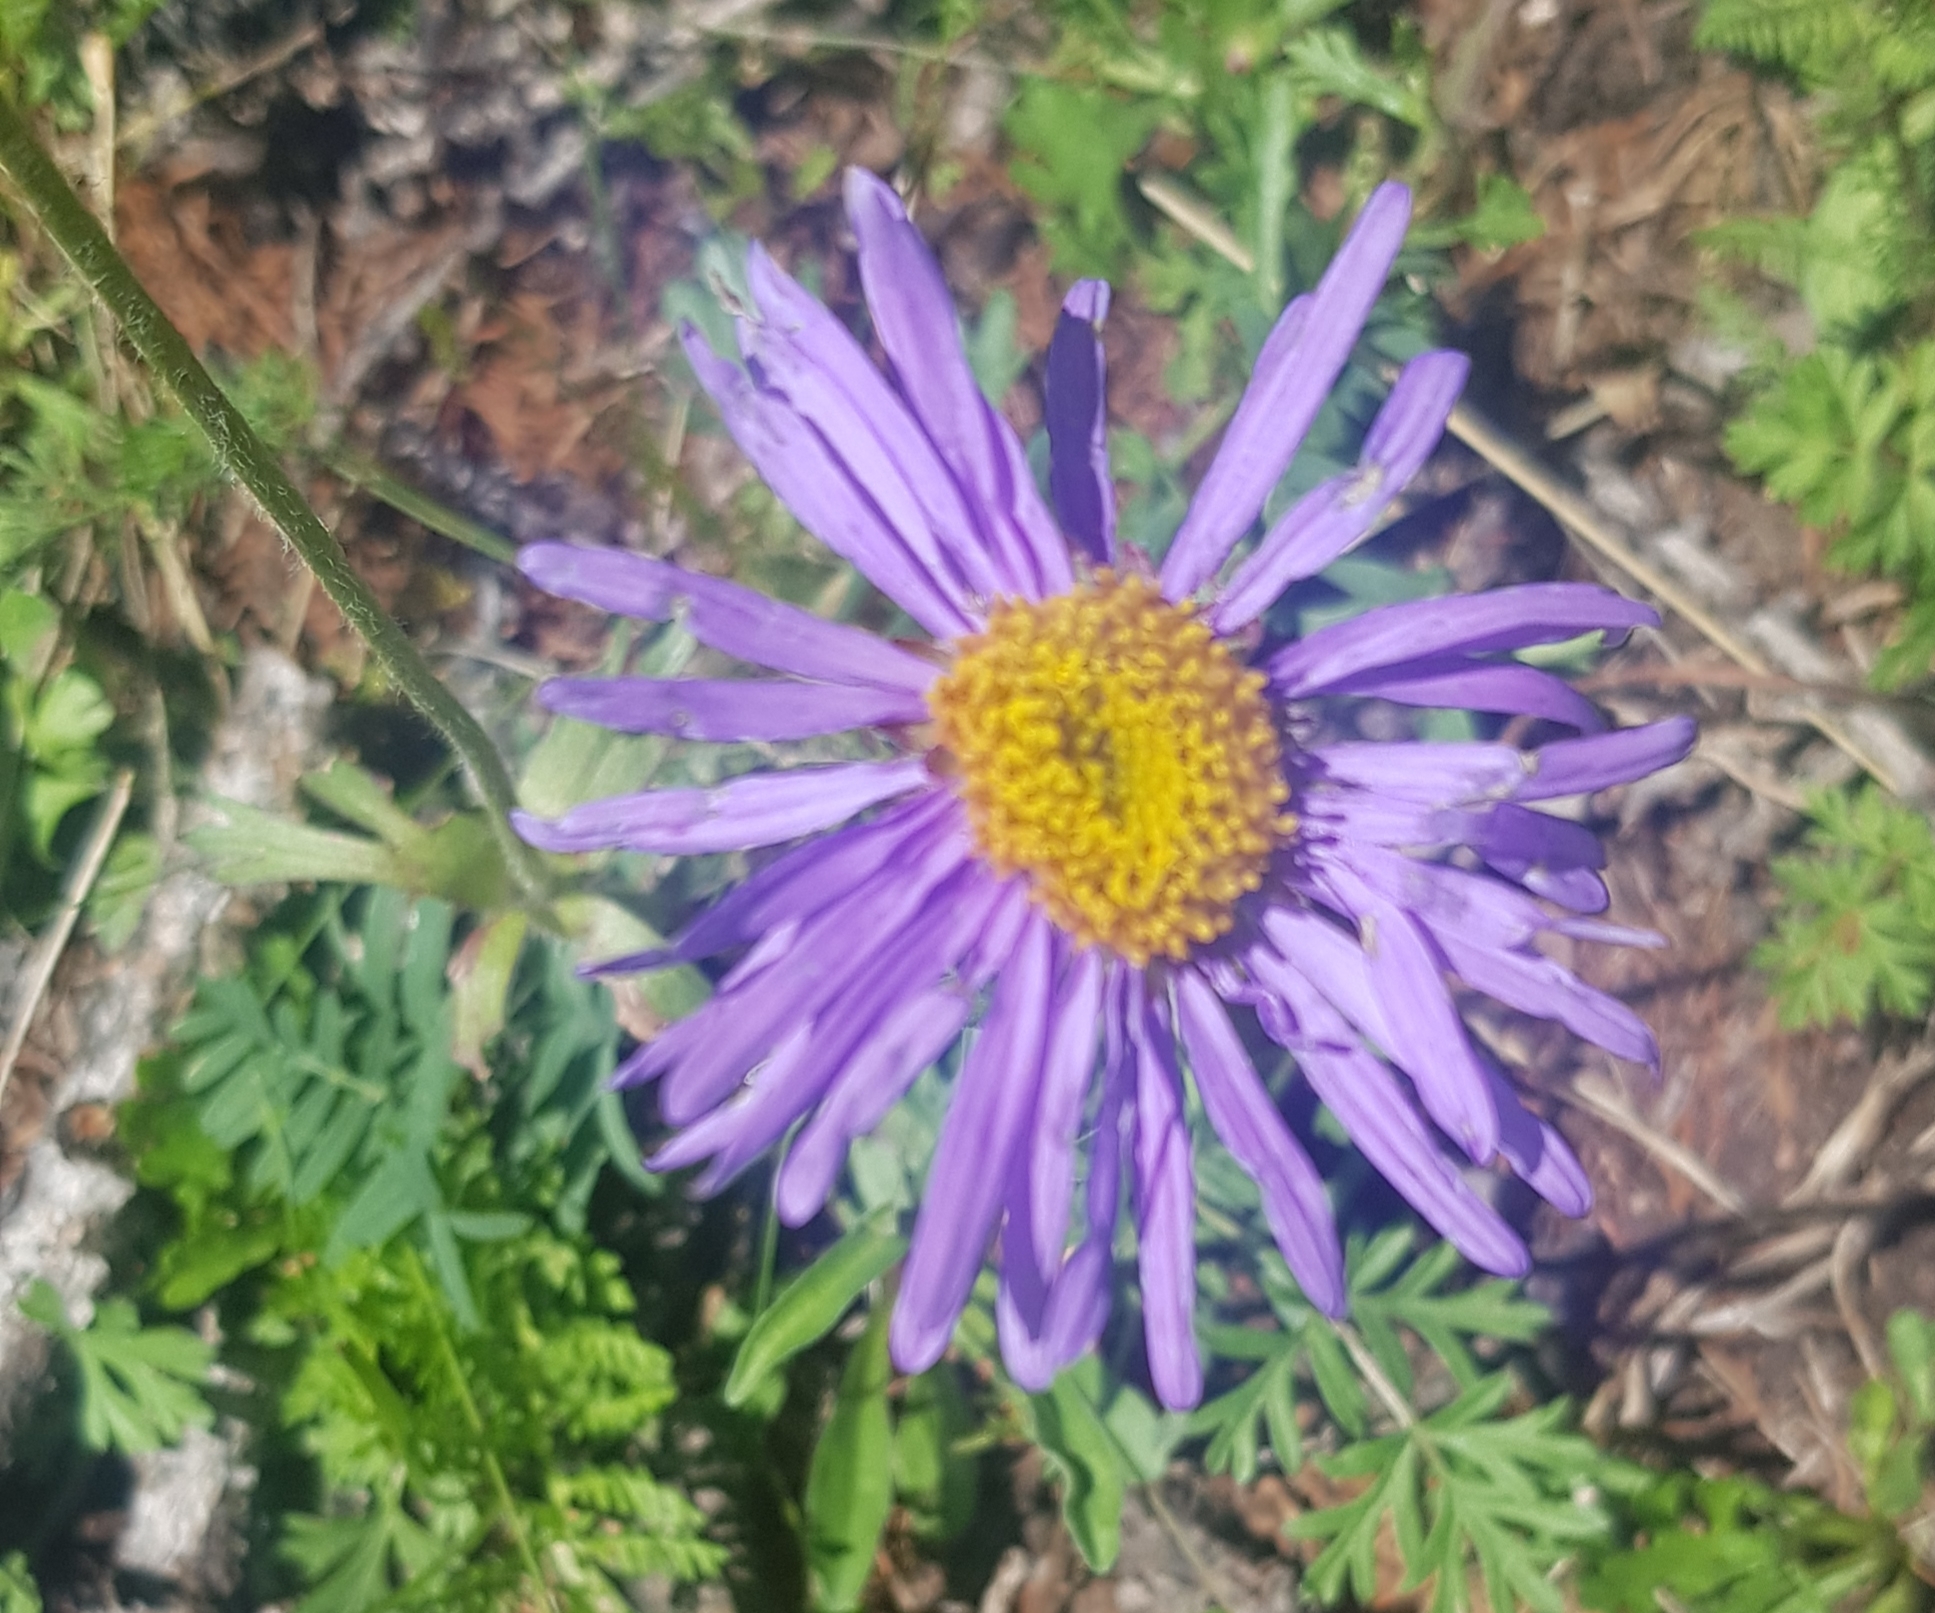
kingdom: Plantae
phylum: Tracheophyta
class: Magnoliopsida
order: Asterales
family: Asteraceae
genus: Aster
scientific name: Aster alpinus
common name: Alpine aster
